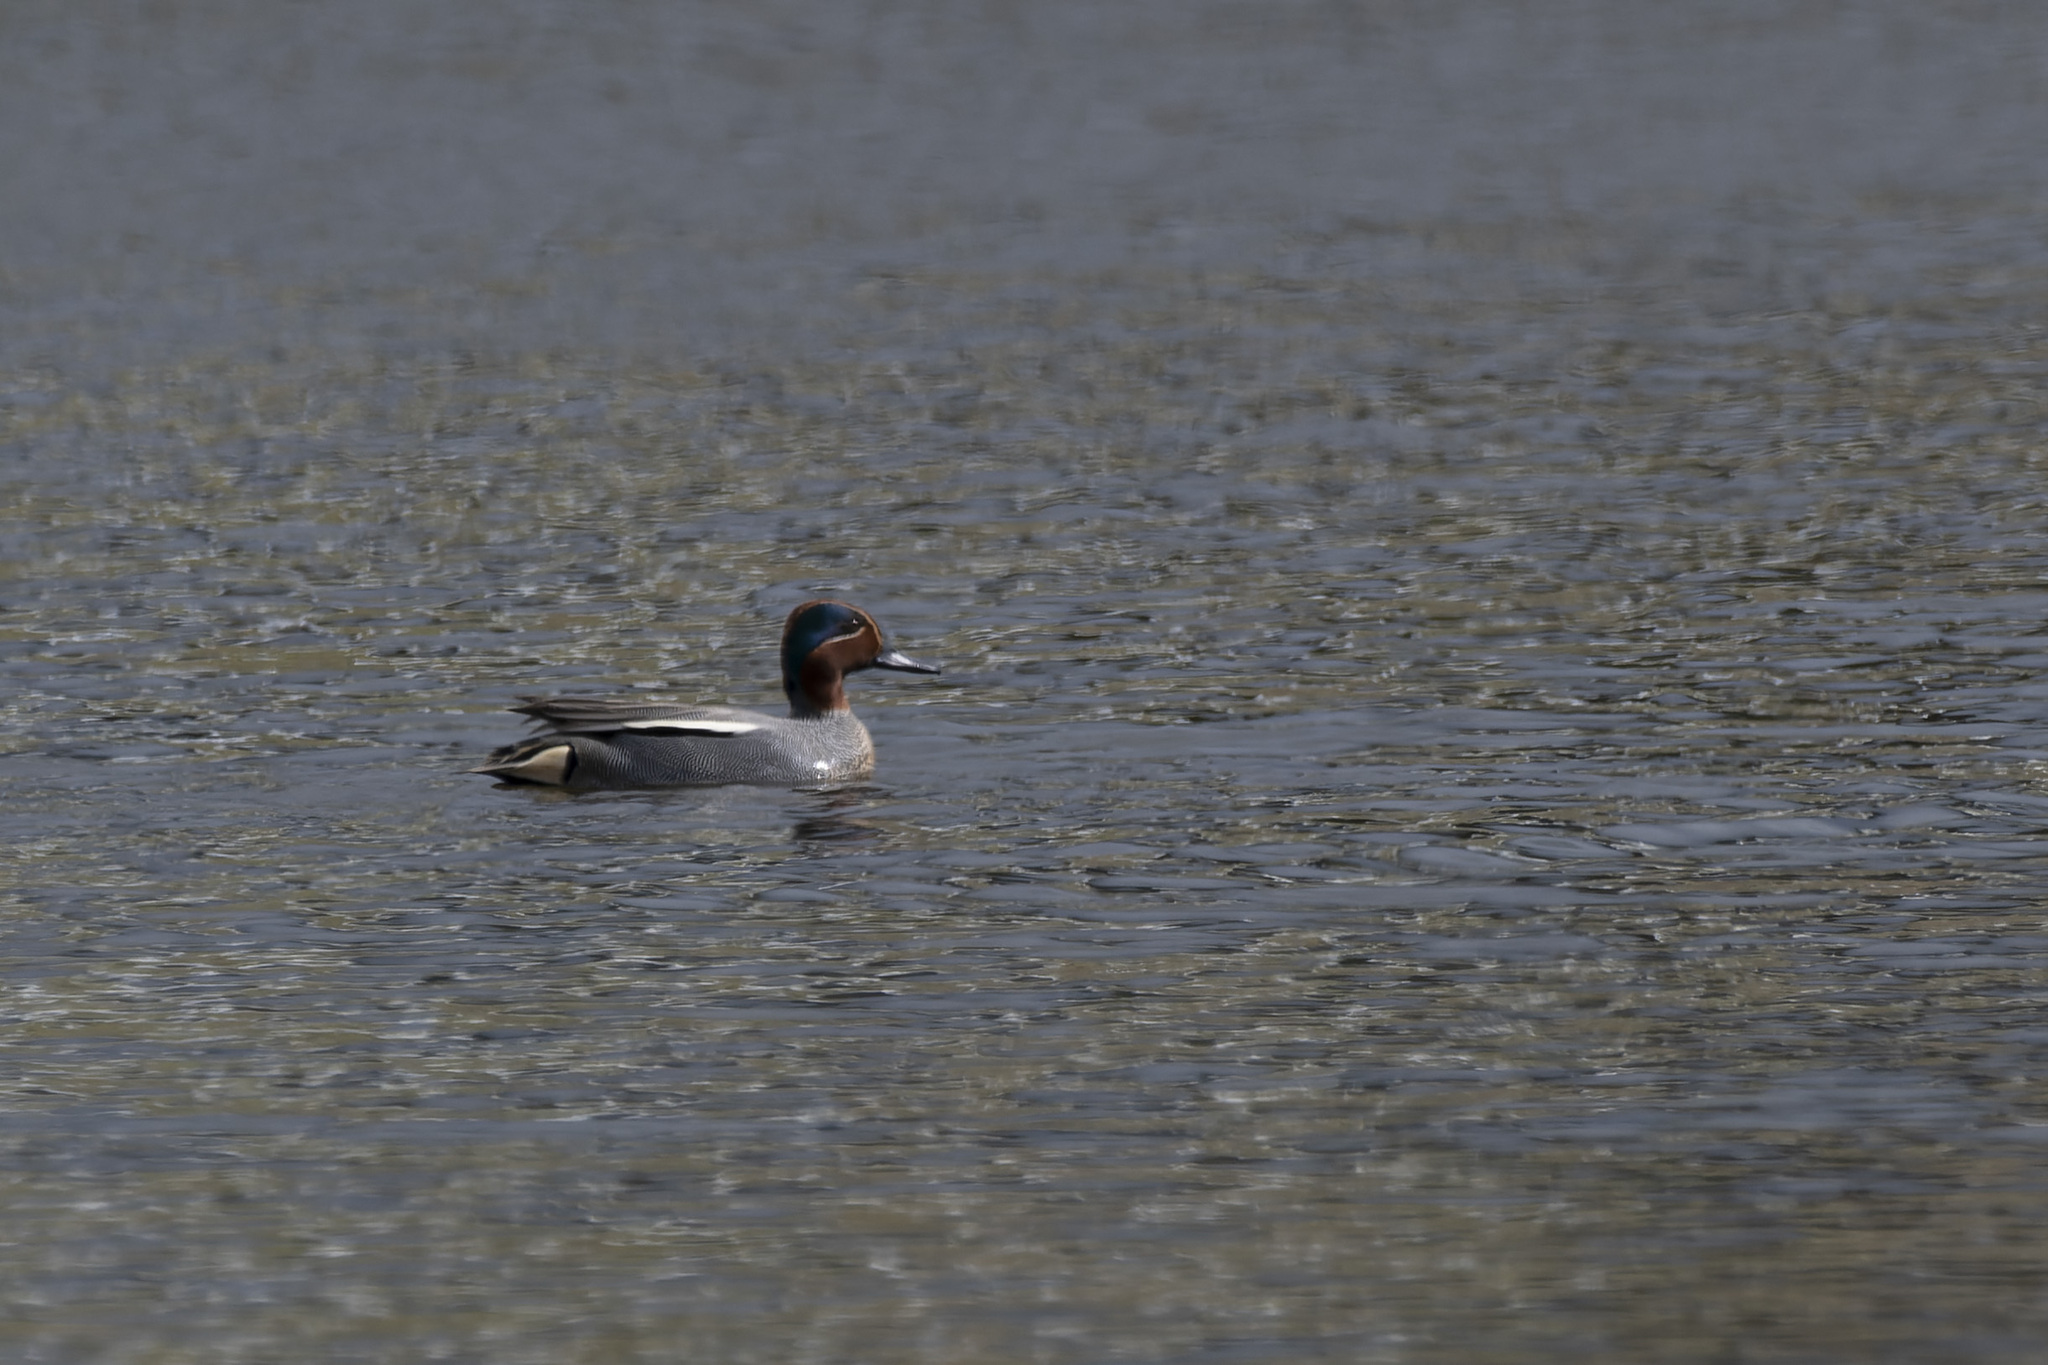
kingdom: Animalia
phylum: Chordata
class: Aves
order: Anseriformes
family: Anatidae
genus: Anas
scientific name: Anas crecca
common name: Eurasian teal
